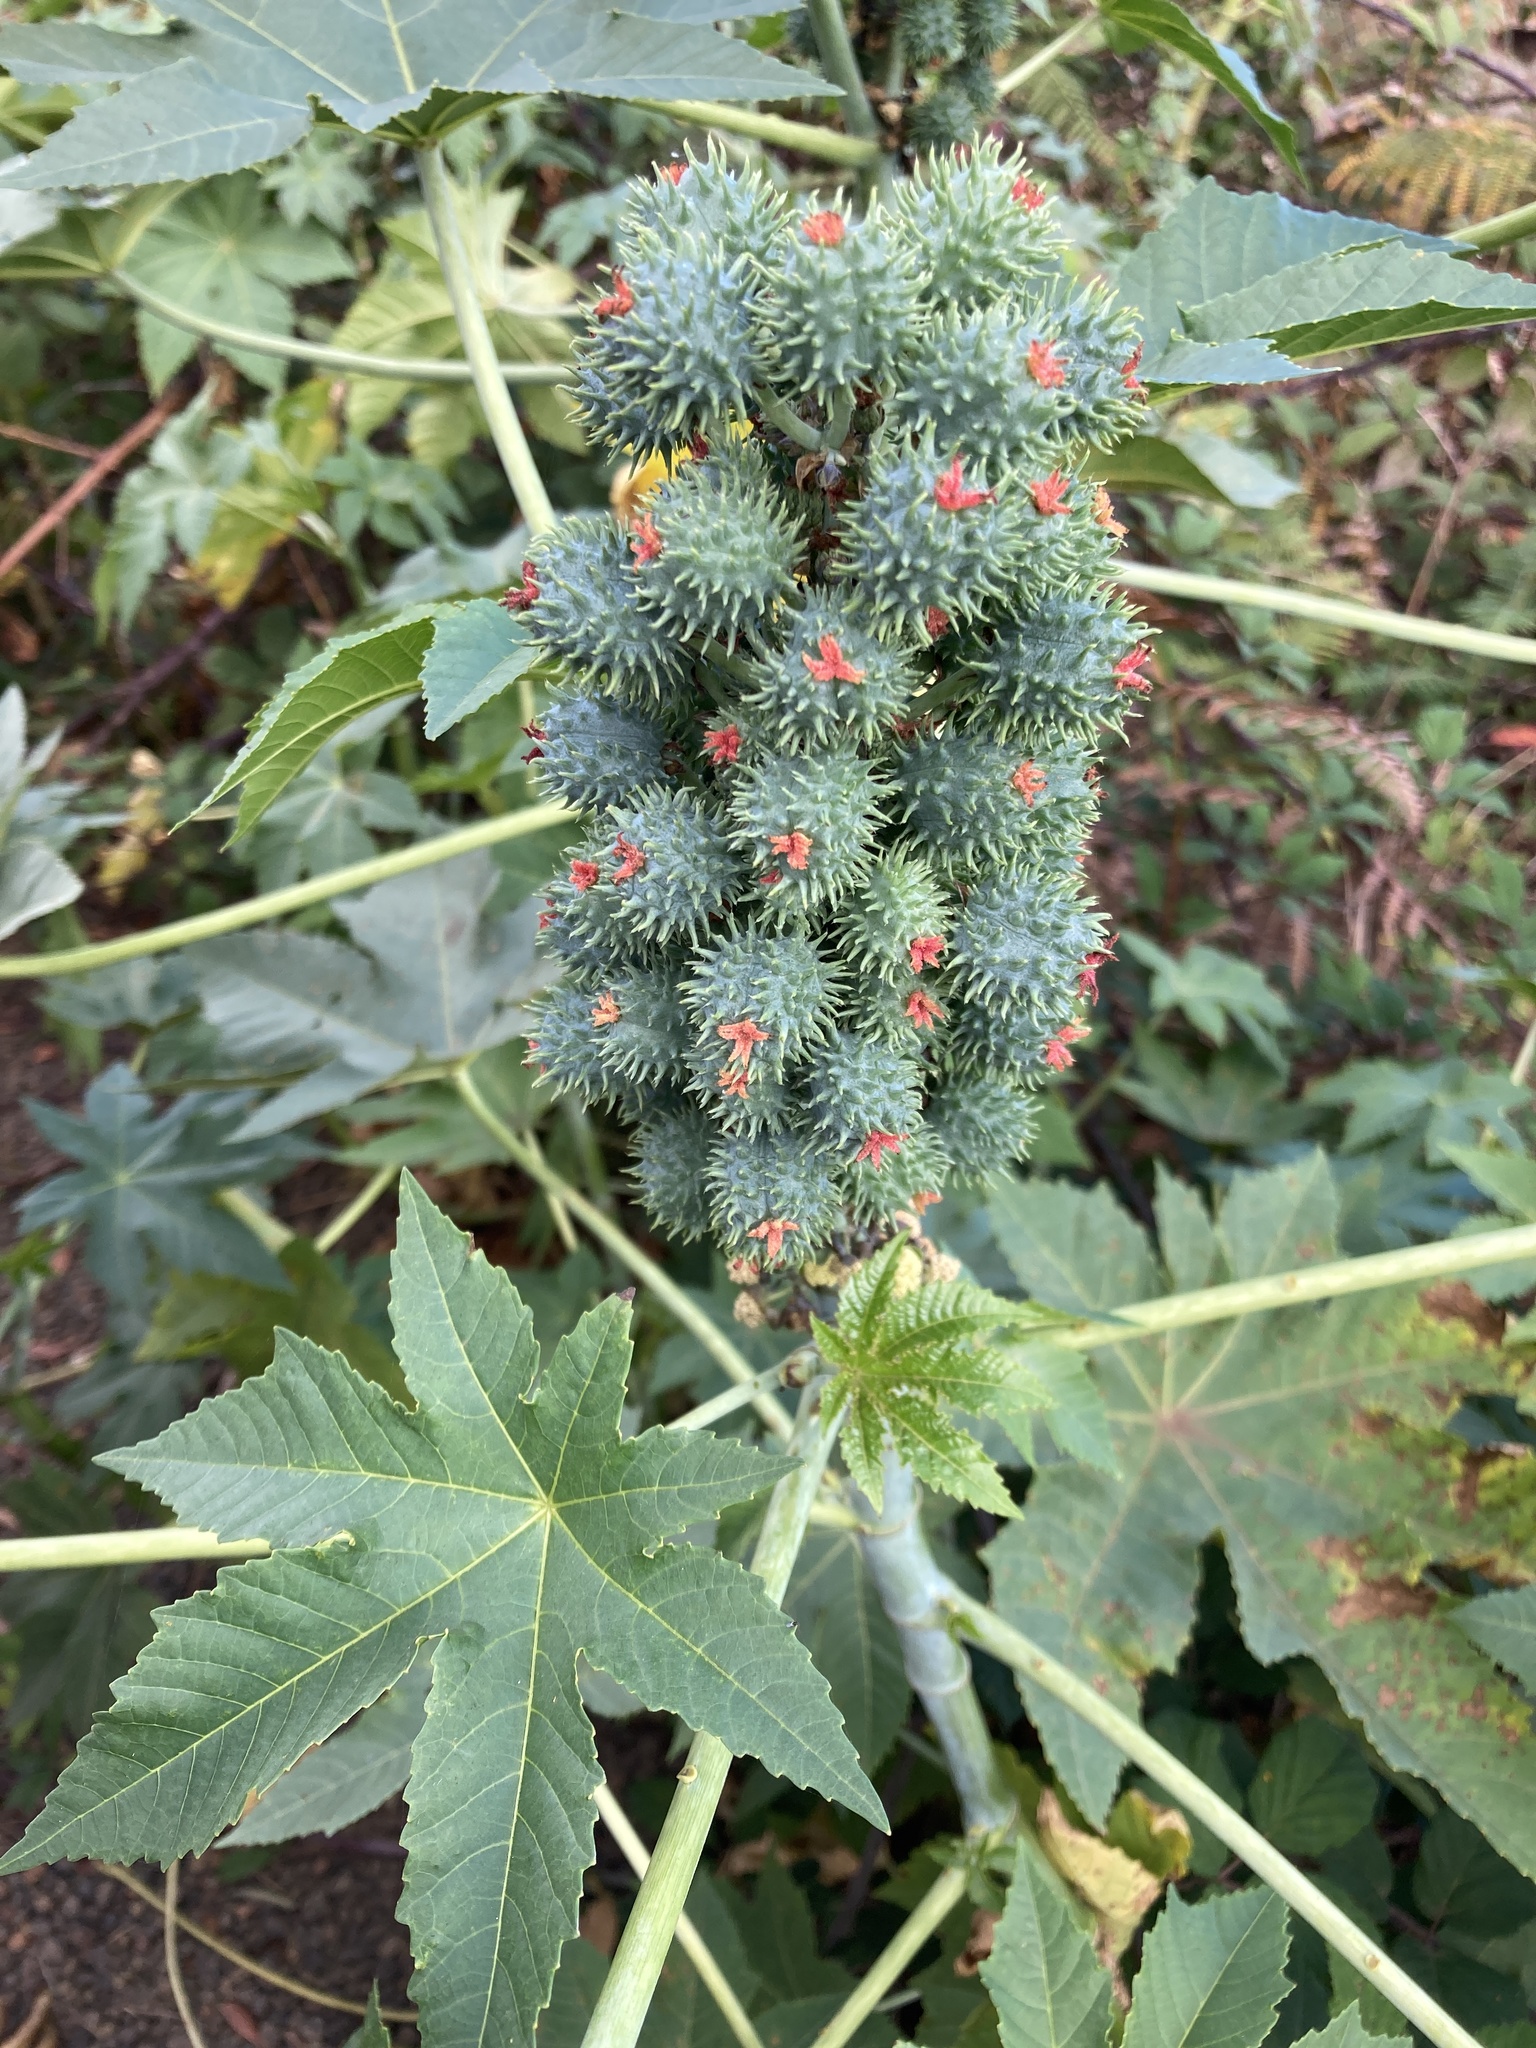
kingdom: Plantae
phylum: Tracheophyta
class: Magnoliopsida
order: Malpighiales
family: Euphorbiaceae
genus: Ricinus
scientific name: Ricinus communis
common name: Castor-oil-plant
